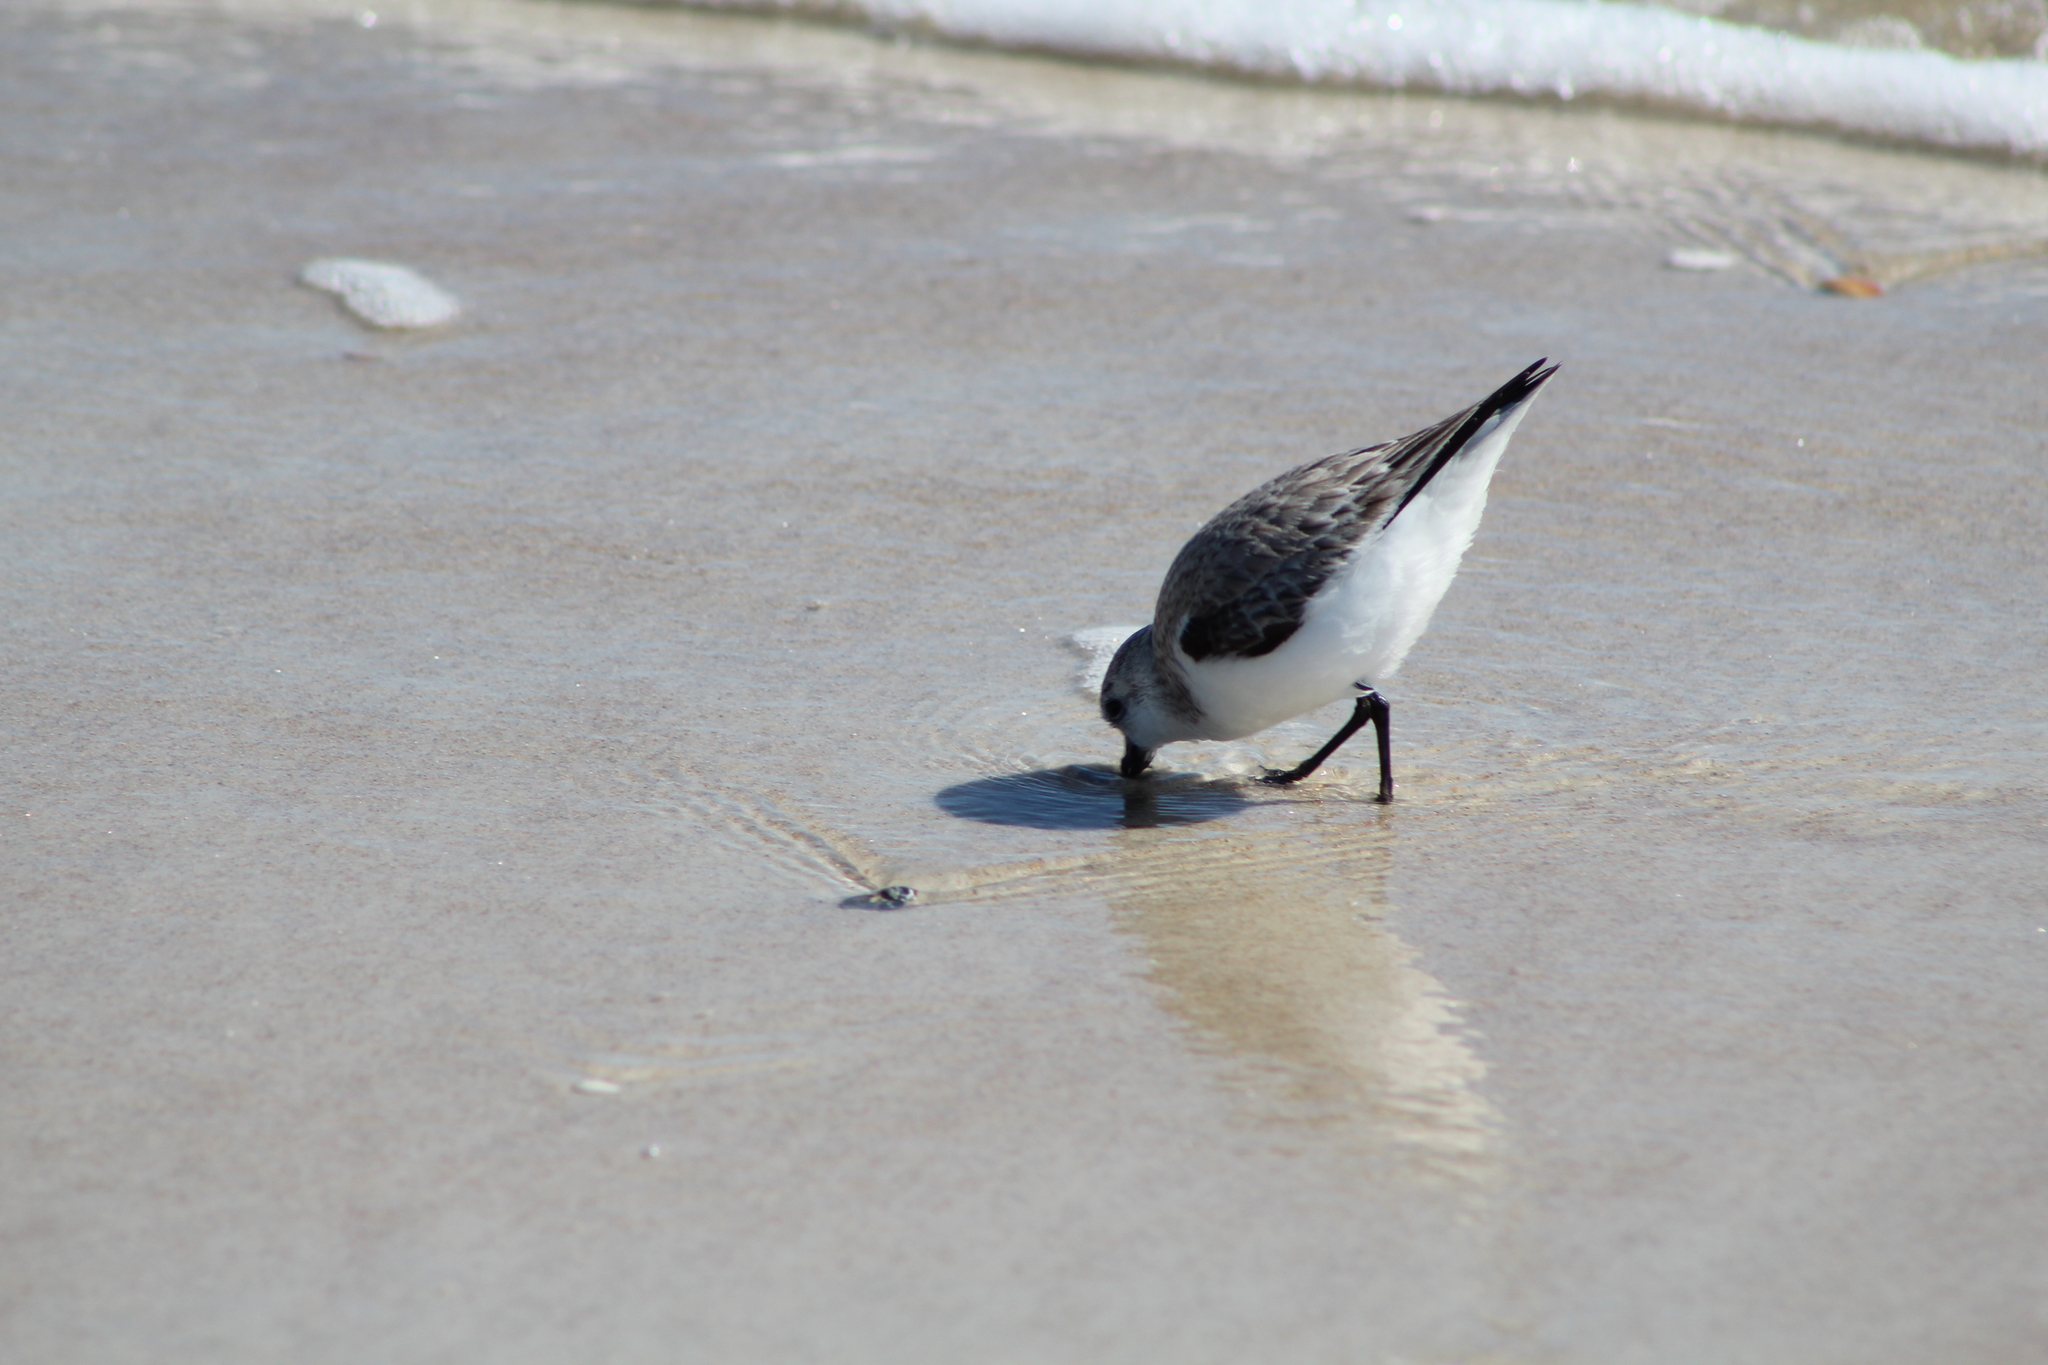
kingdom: Animalia
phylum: Chordata
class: Aves
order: Charadriiformes
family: Scolopacidae
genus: Calidris
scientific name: Calidris alba
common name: Sanderling
